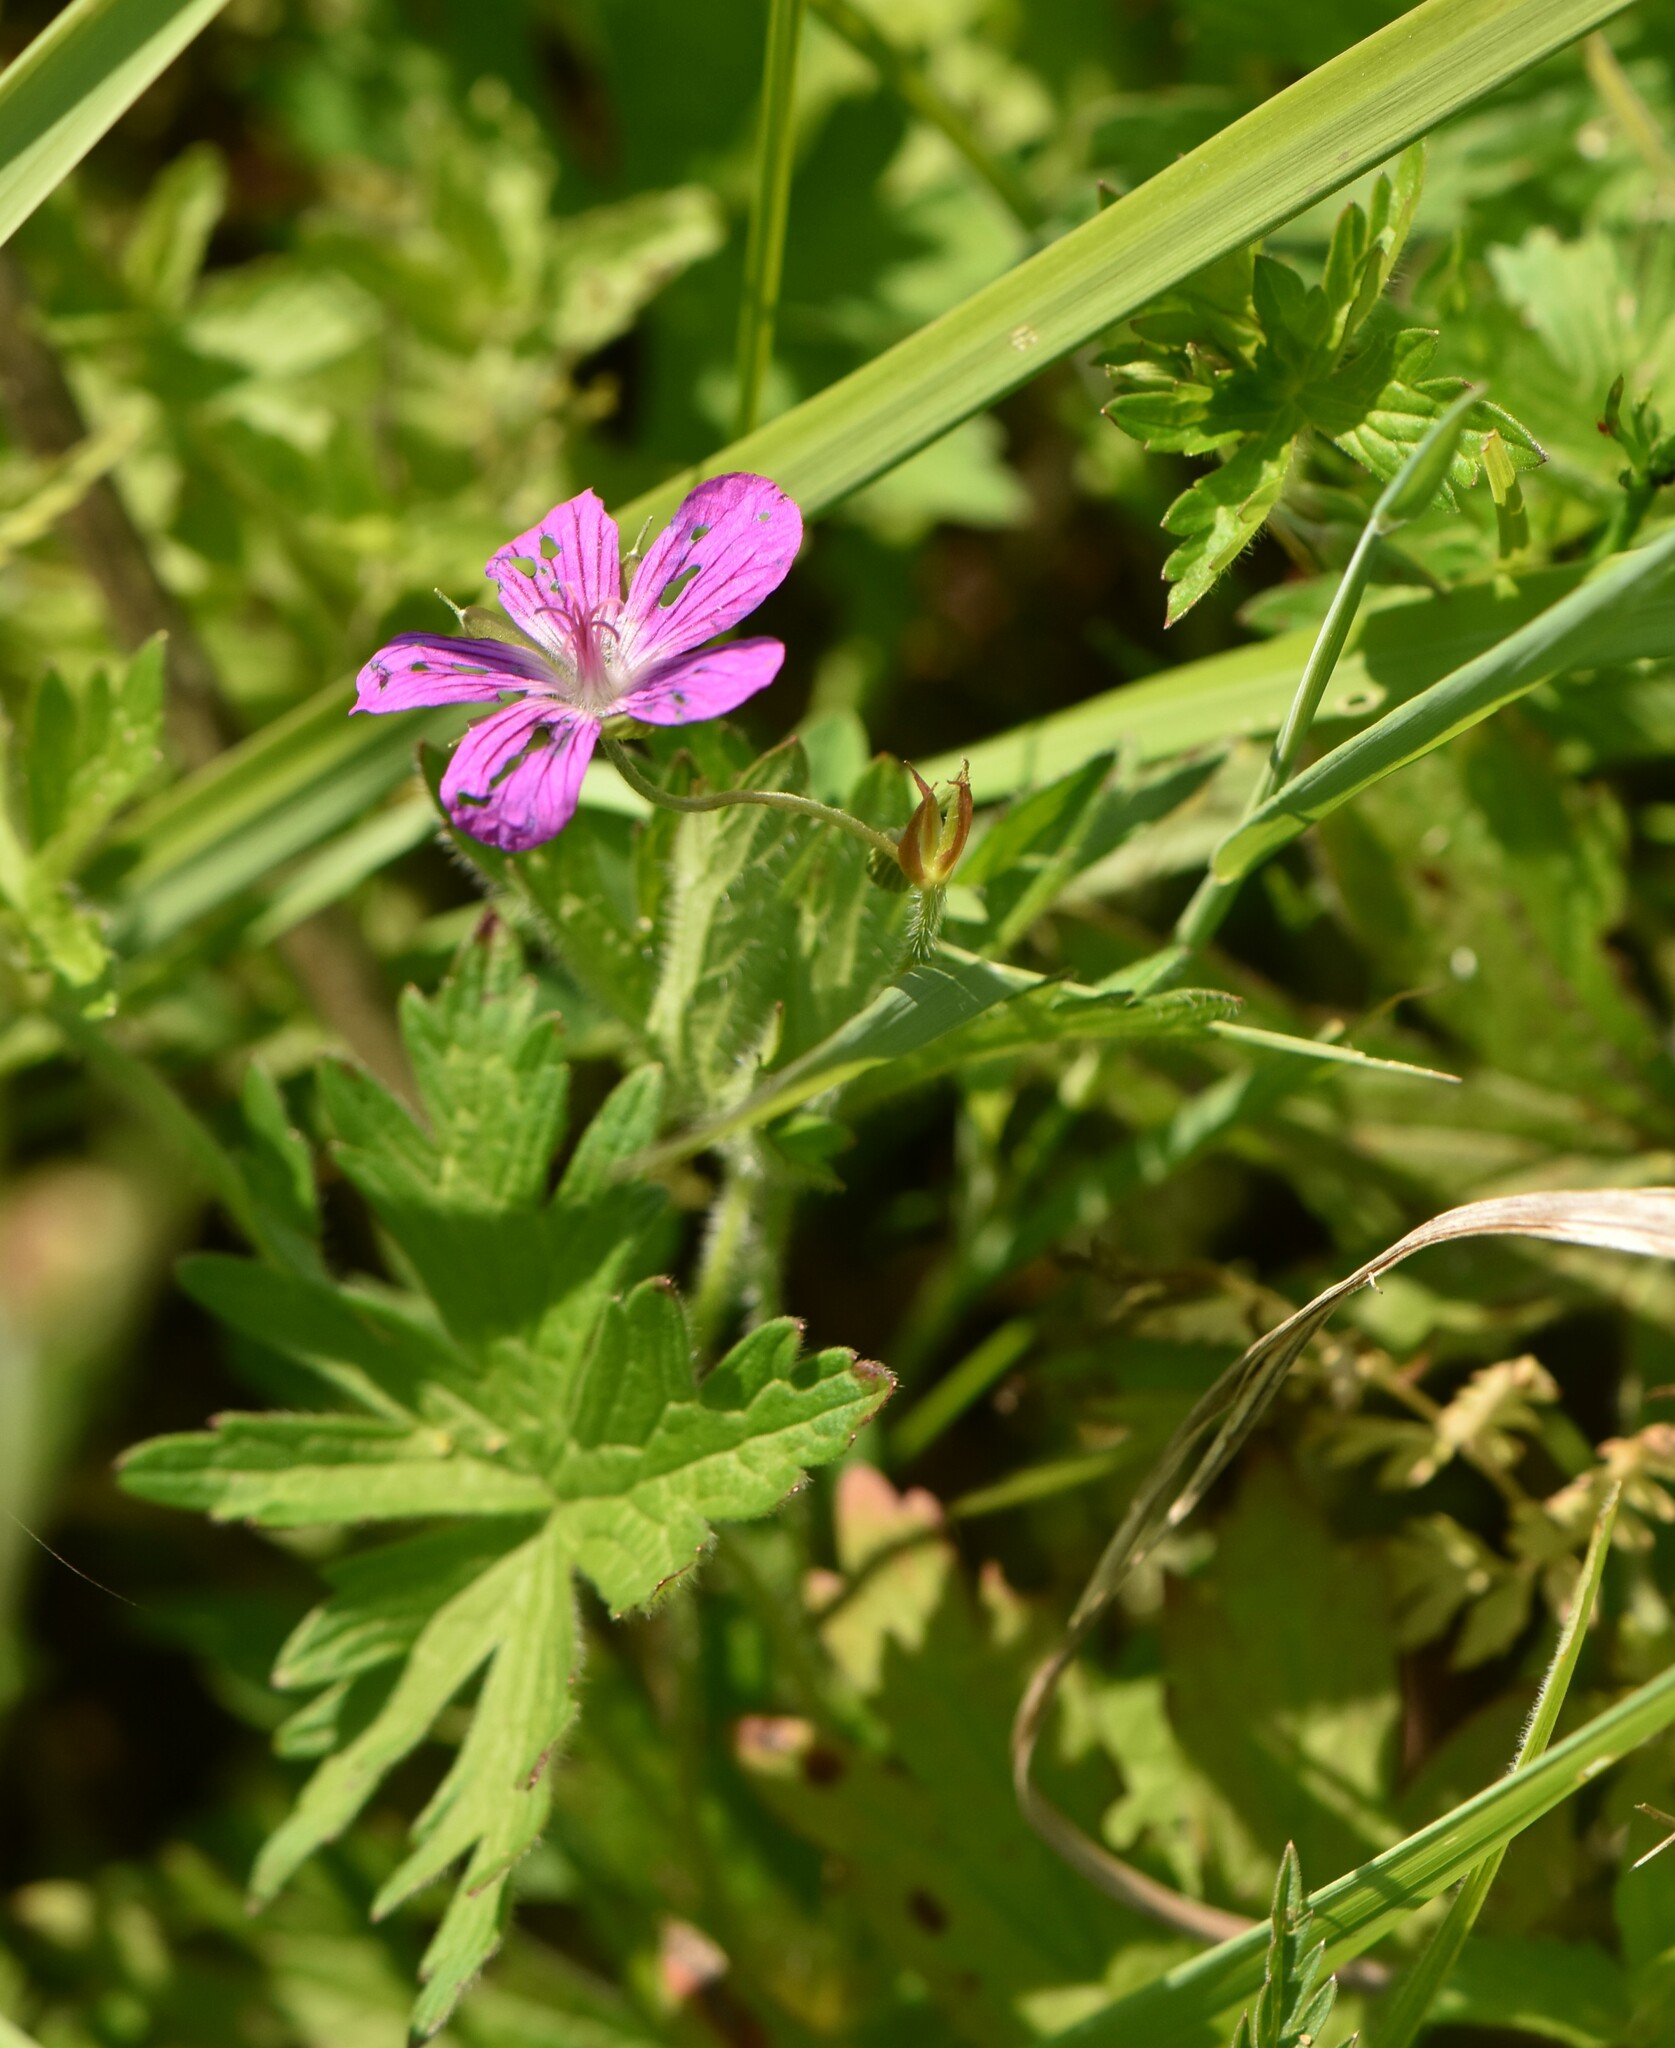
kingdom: Plantae
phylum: Tracheophyta
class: Magnoliopsida
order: Geraniales
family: Geraniaceae
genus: Geranium
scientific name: Geranium palustre
